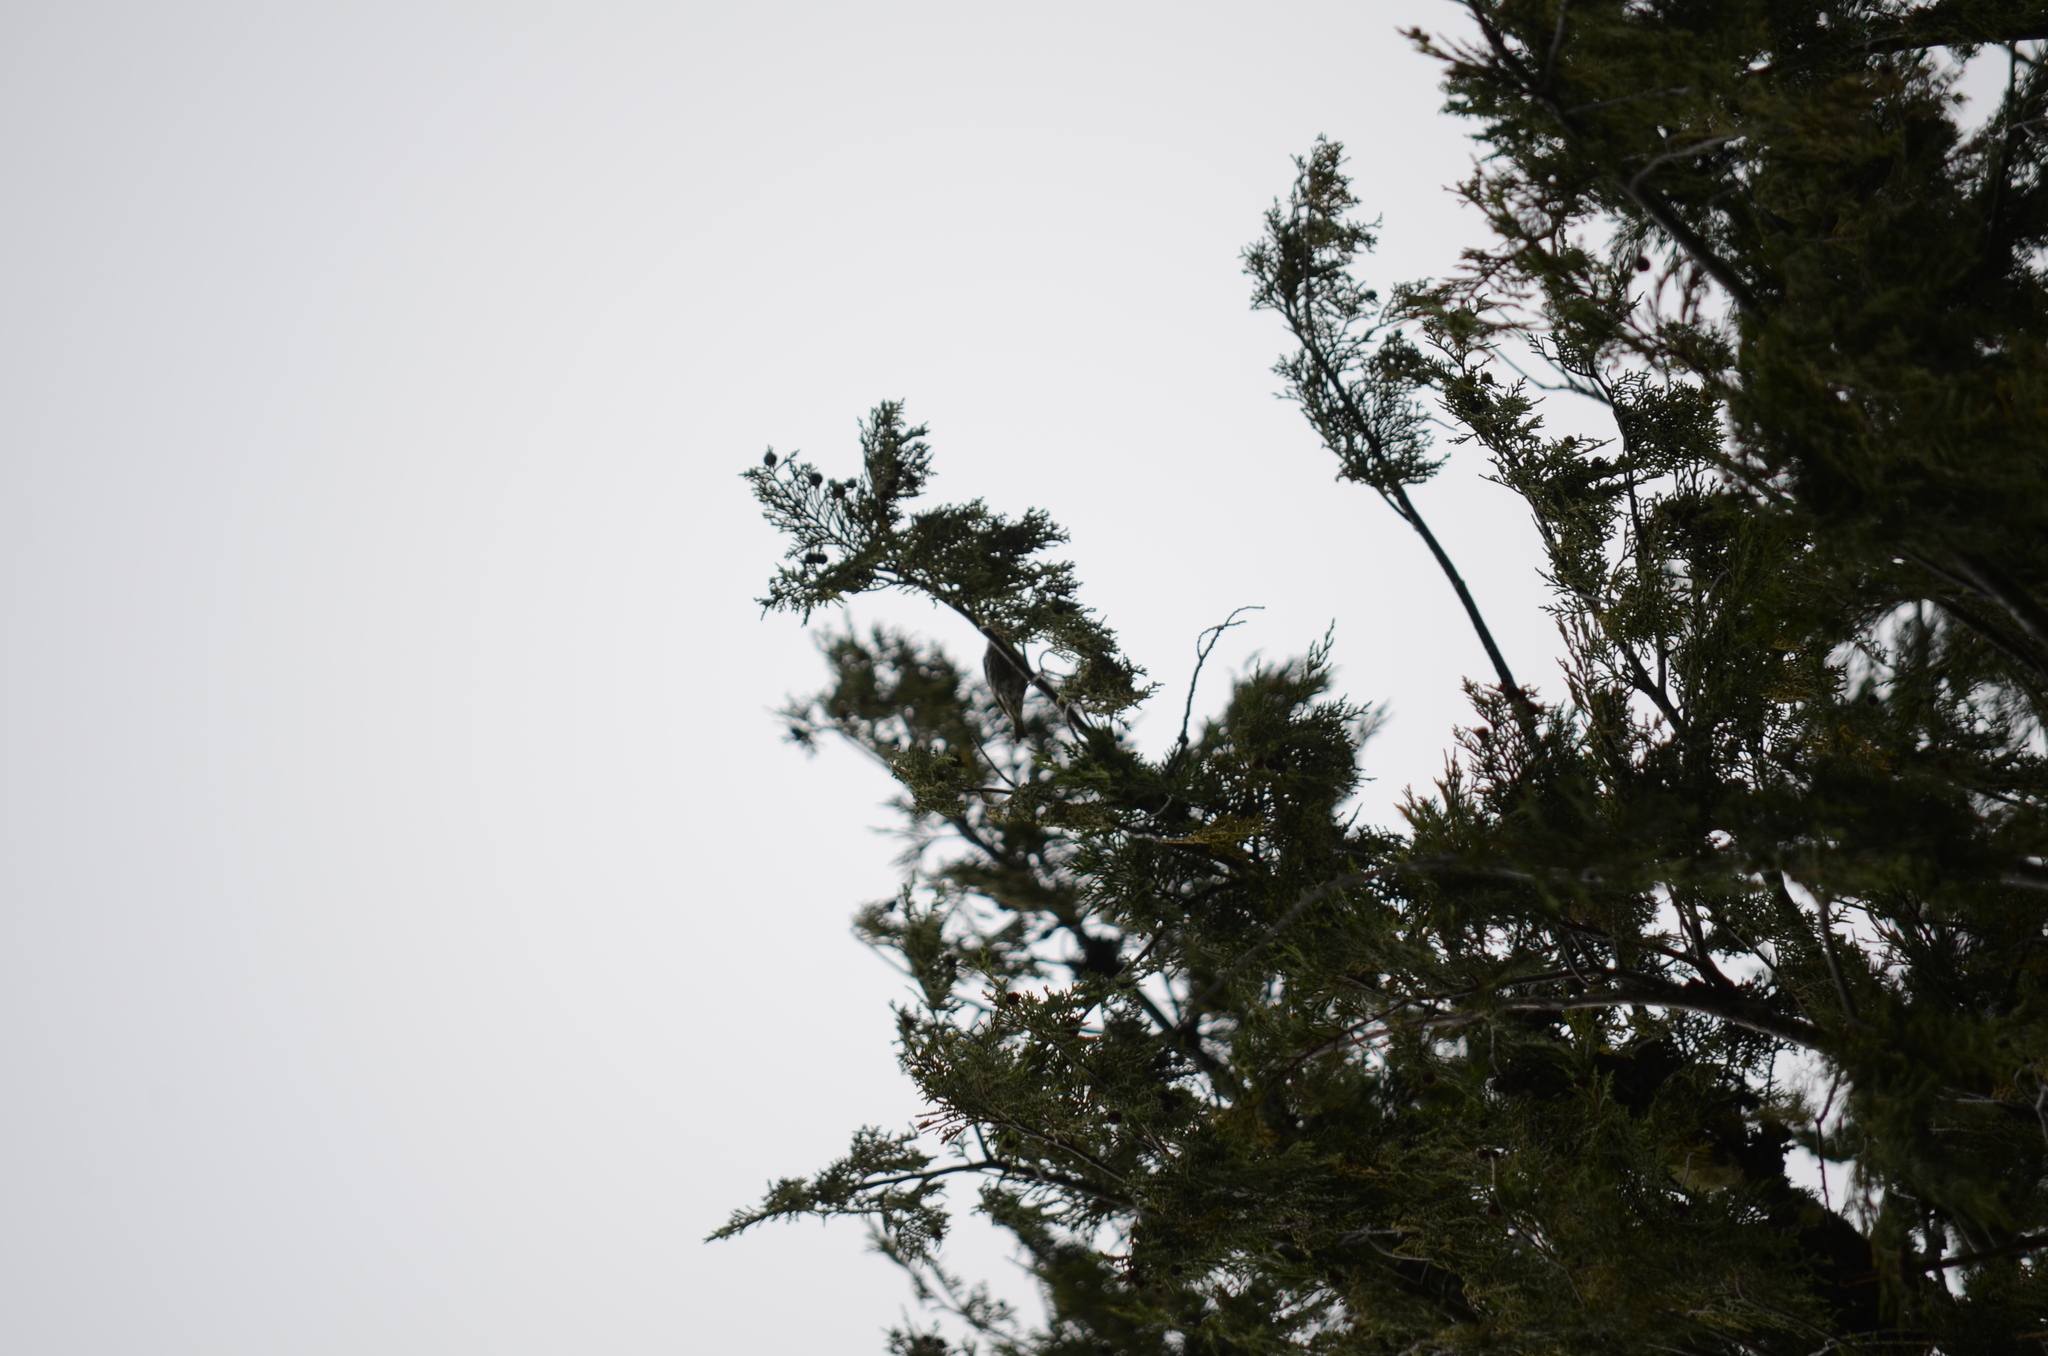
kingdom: Animalia
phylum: Chordata
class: Aves
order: Passeriformes
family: Fringillidae
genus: Spinus
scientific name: Spinus pinus
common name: Pine siskin
